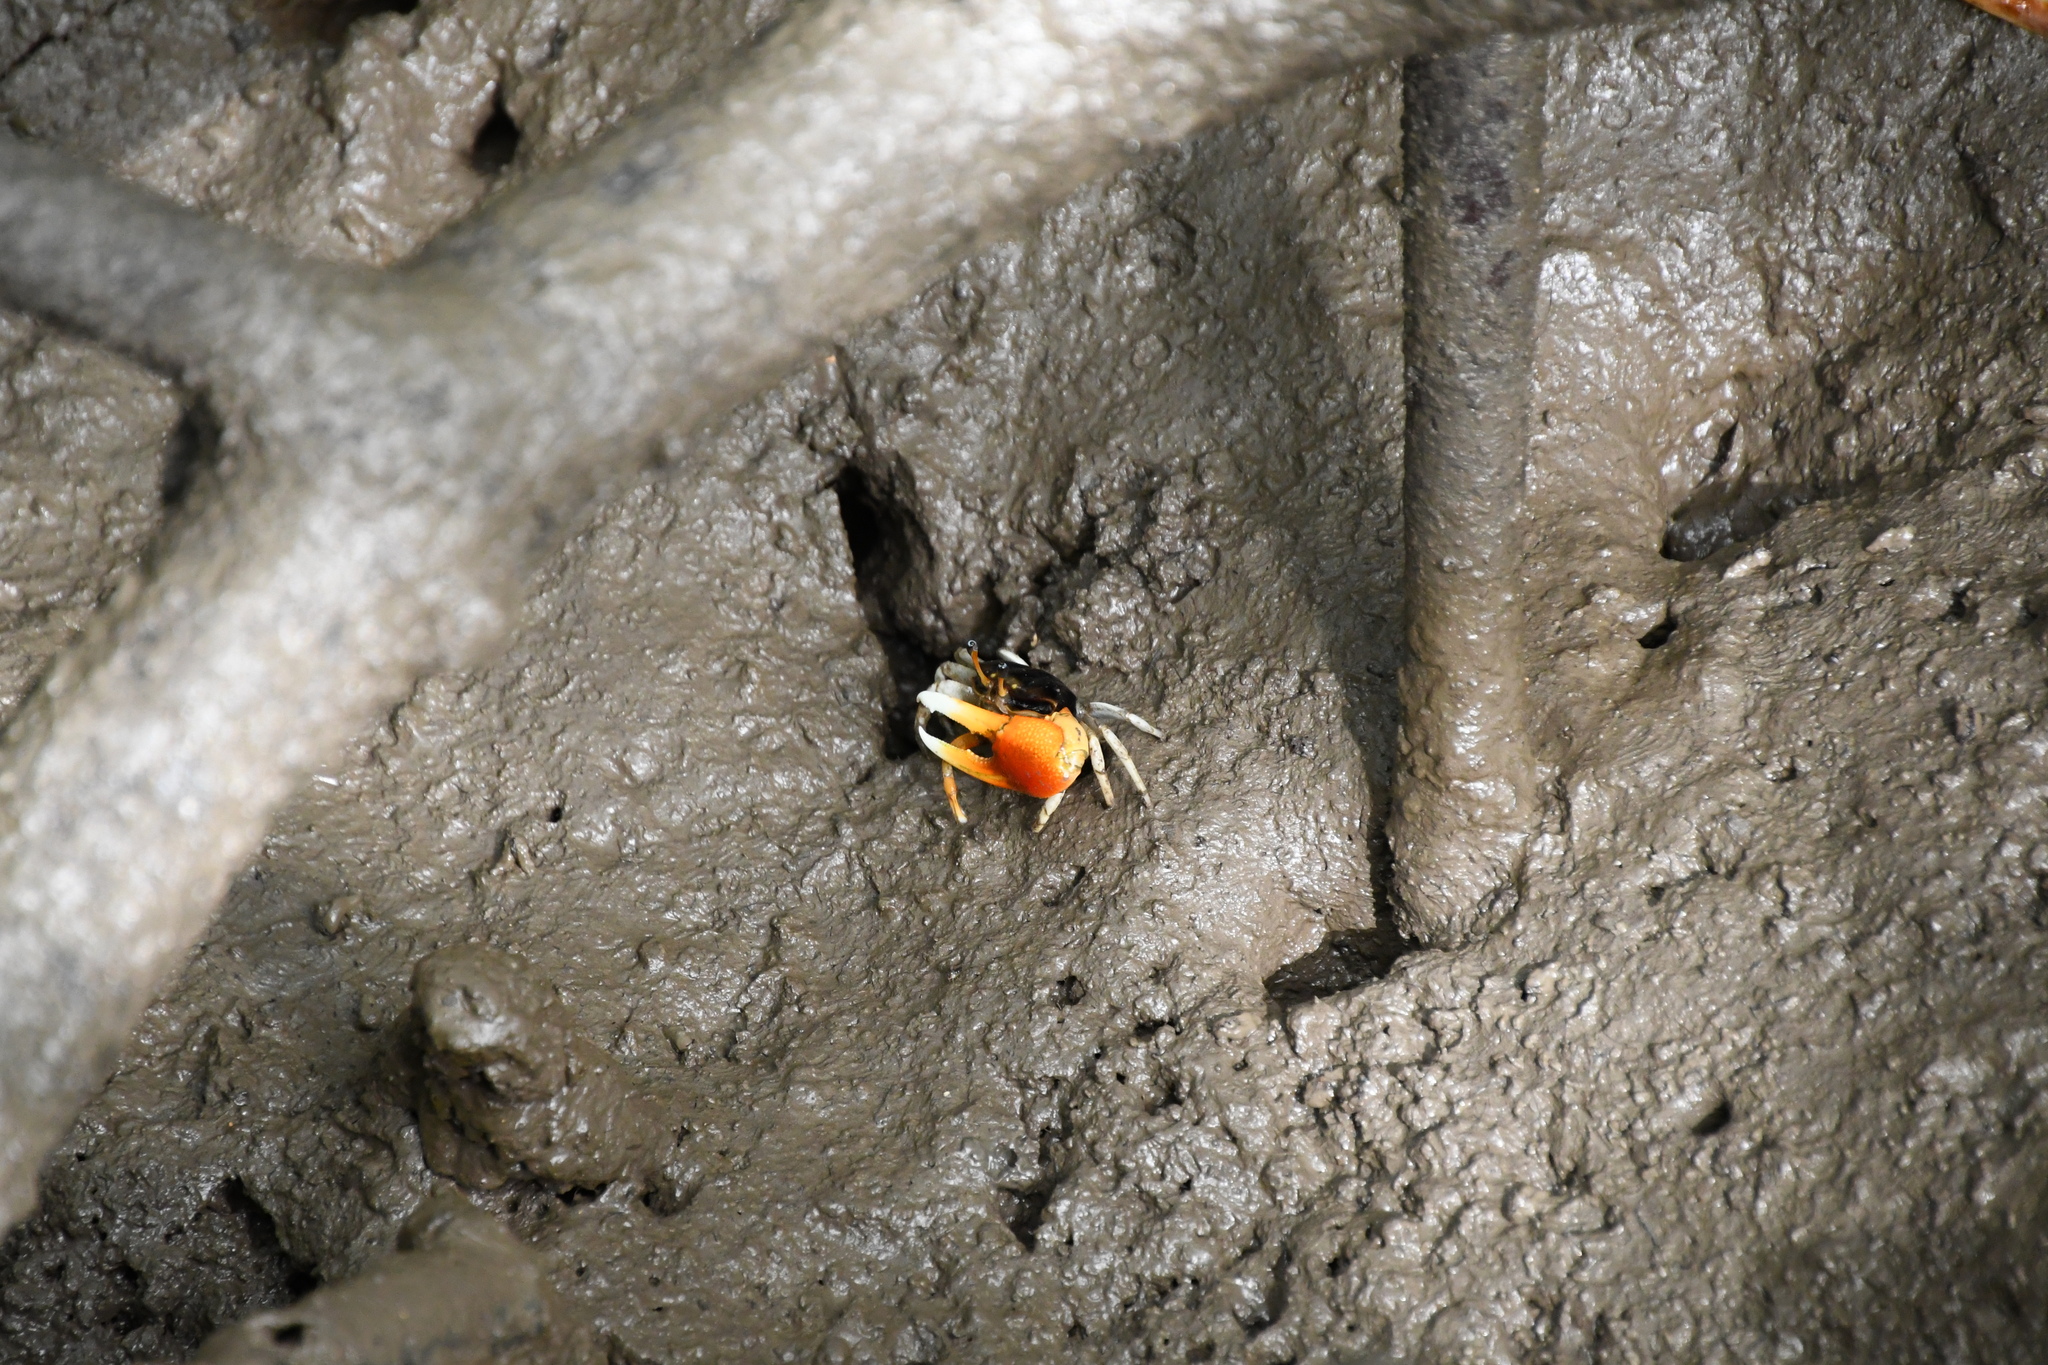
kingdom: Animalia
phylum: Arthropoda
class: Malacostraca
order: Decapoda
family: Ocypodidae
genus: Tubuca
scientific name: Tubuca coarctata
